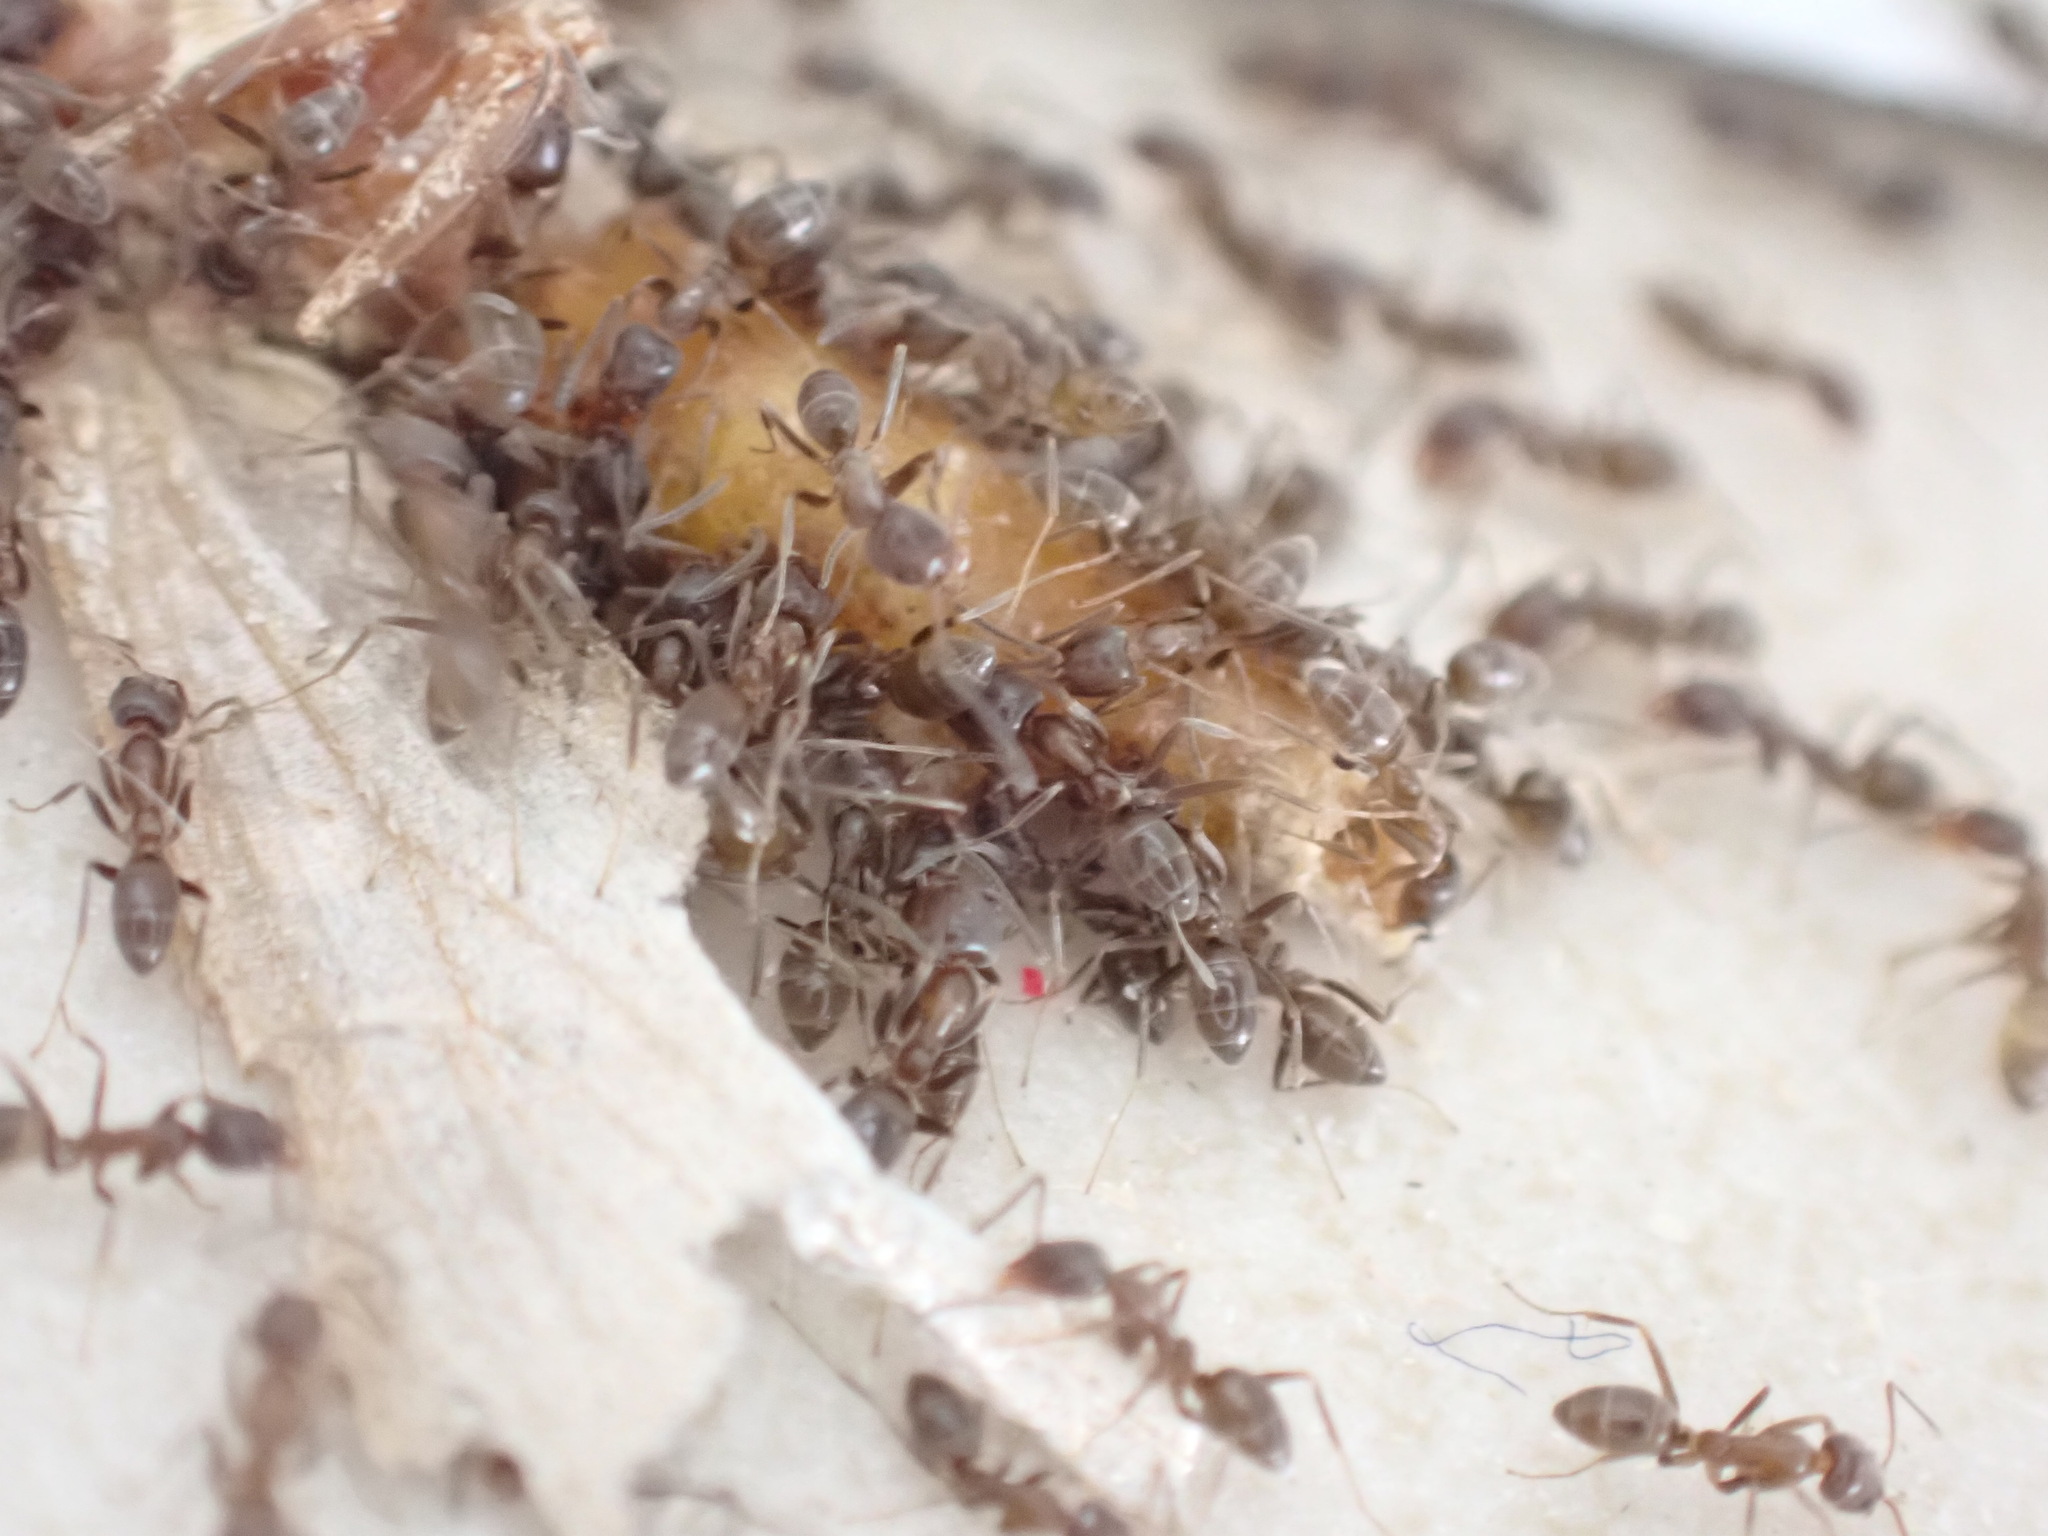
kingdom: Animalia
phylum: Arthropoda
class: Insecta
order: Hymenoptera
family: Formicidae
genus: Linepithema
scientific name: Linepithema humile
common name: Argentine ant
